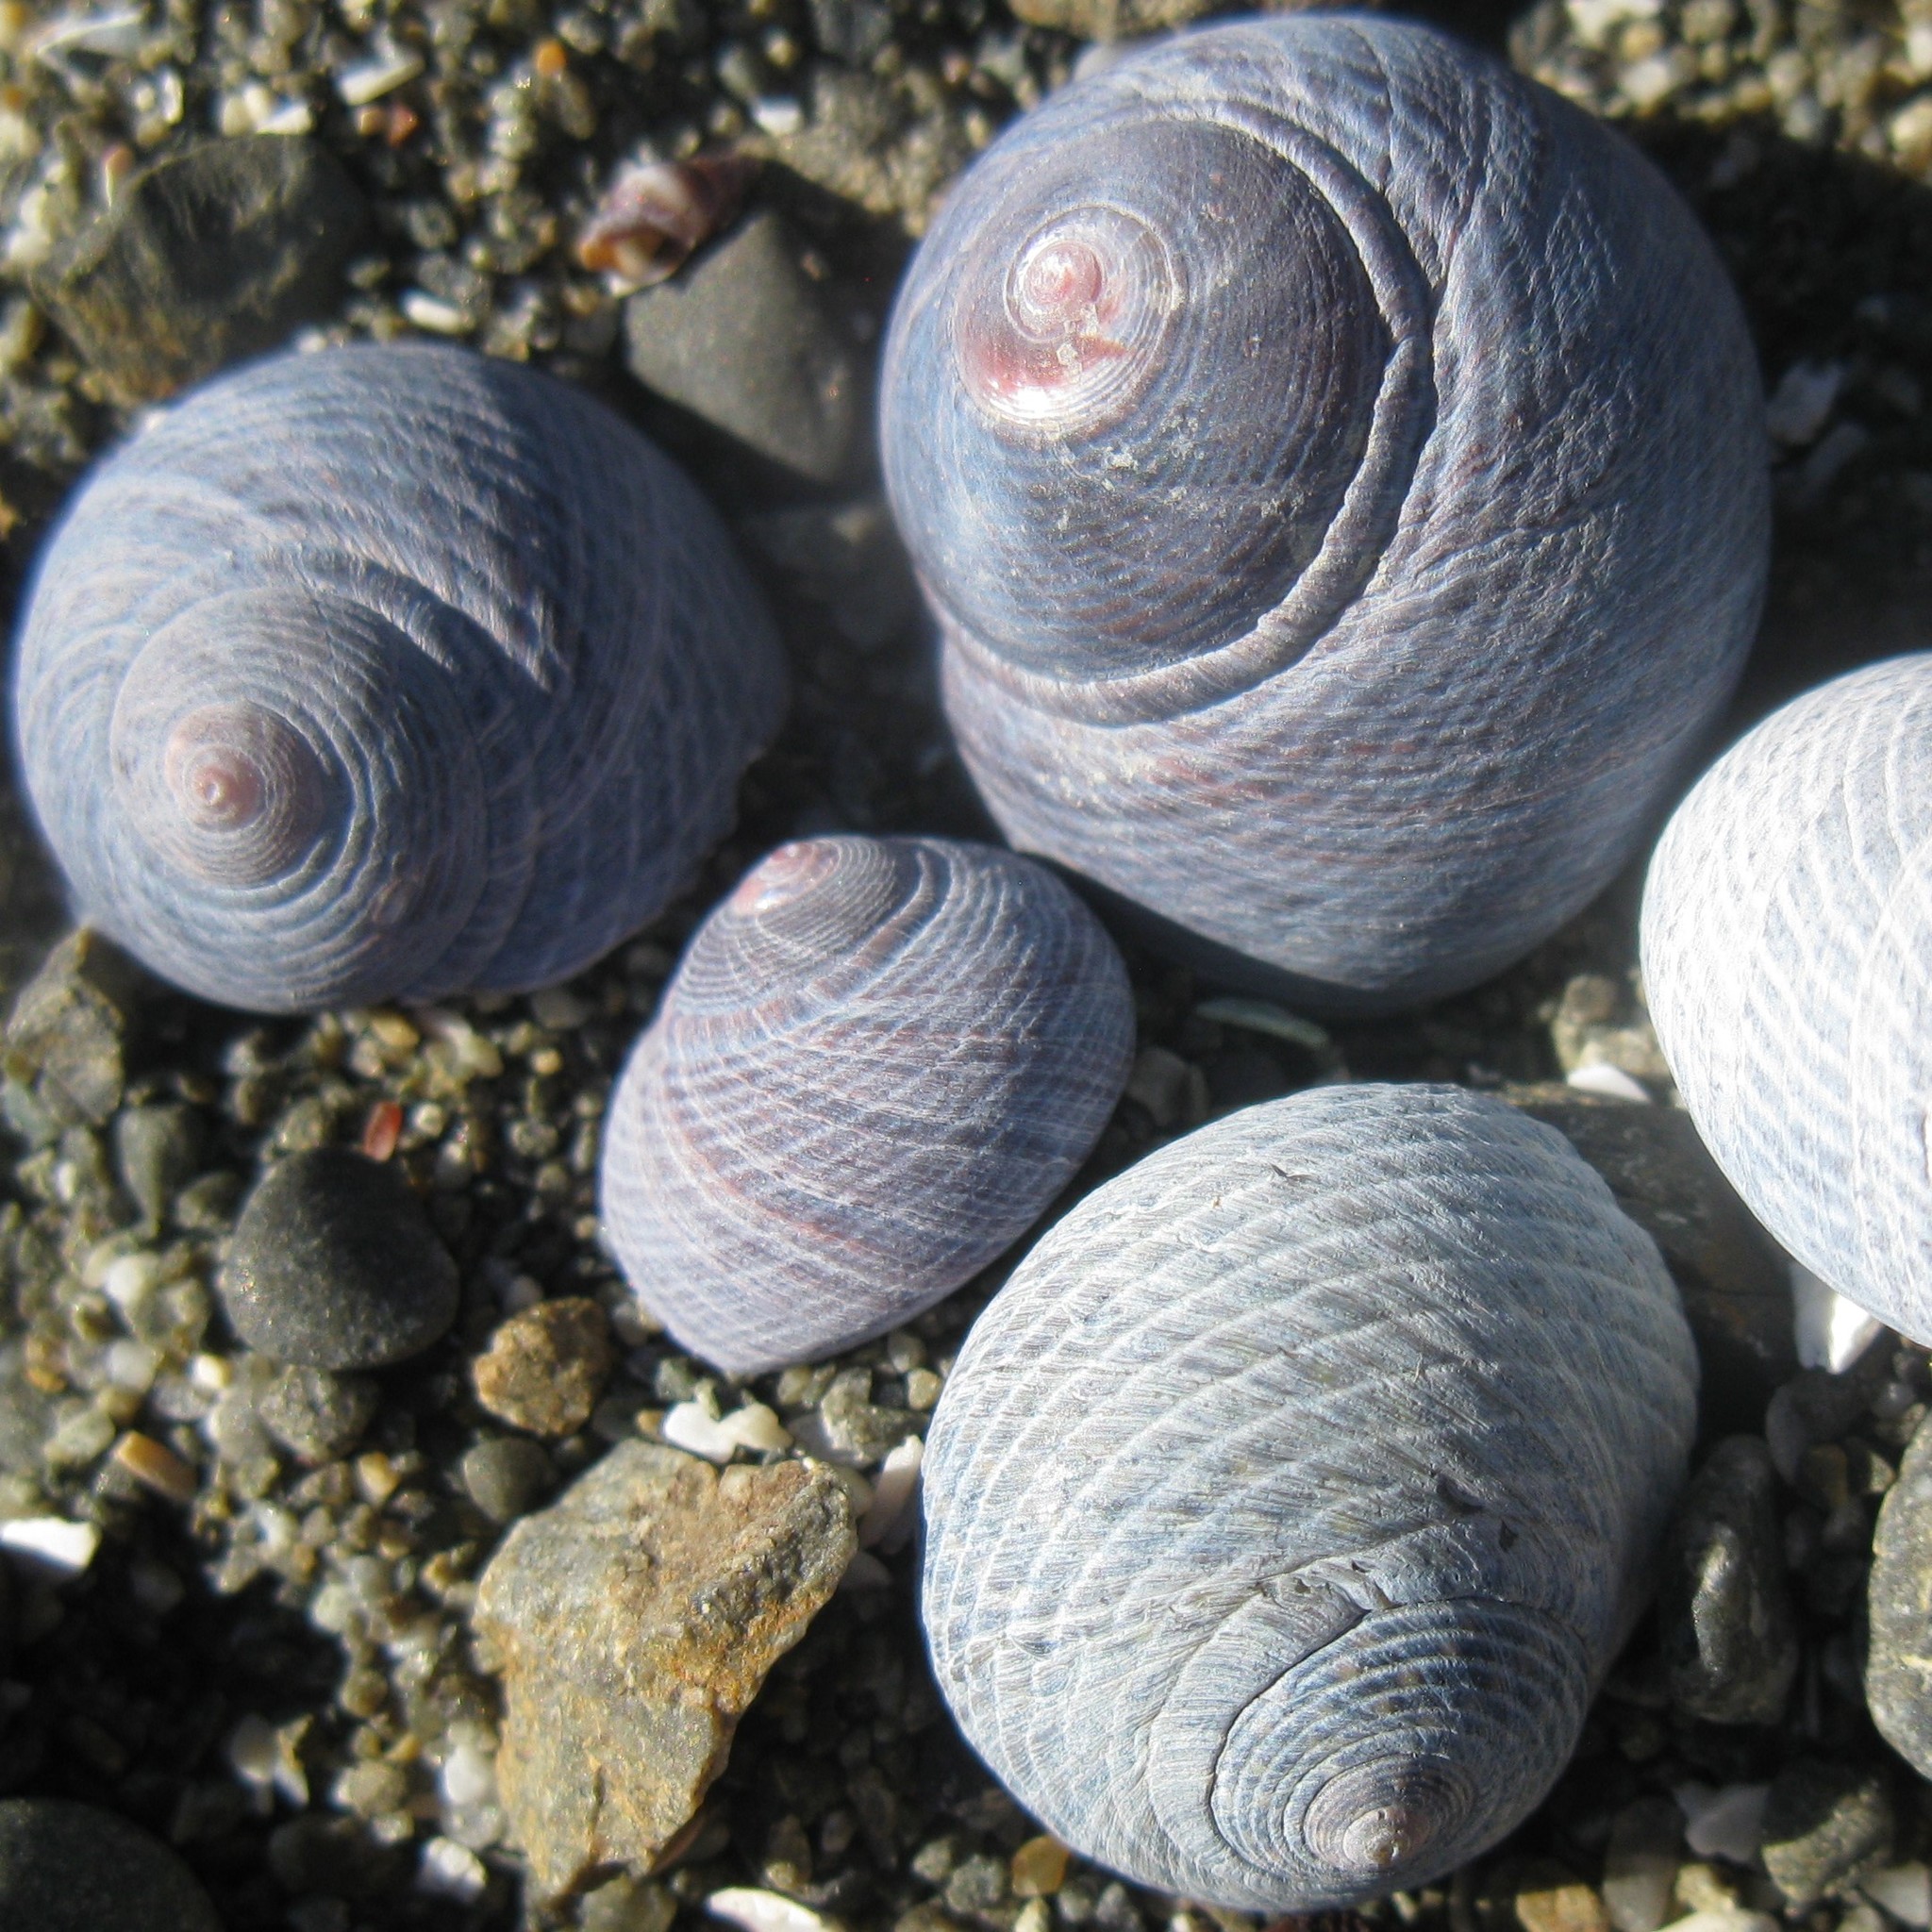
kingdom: Animalia
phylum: Mollusca
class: Gastropoda
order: Trochida
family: Trochidae
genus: Diloma
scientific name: Diloma nigerrimum
